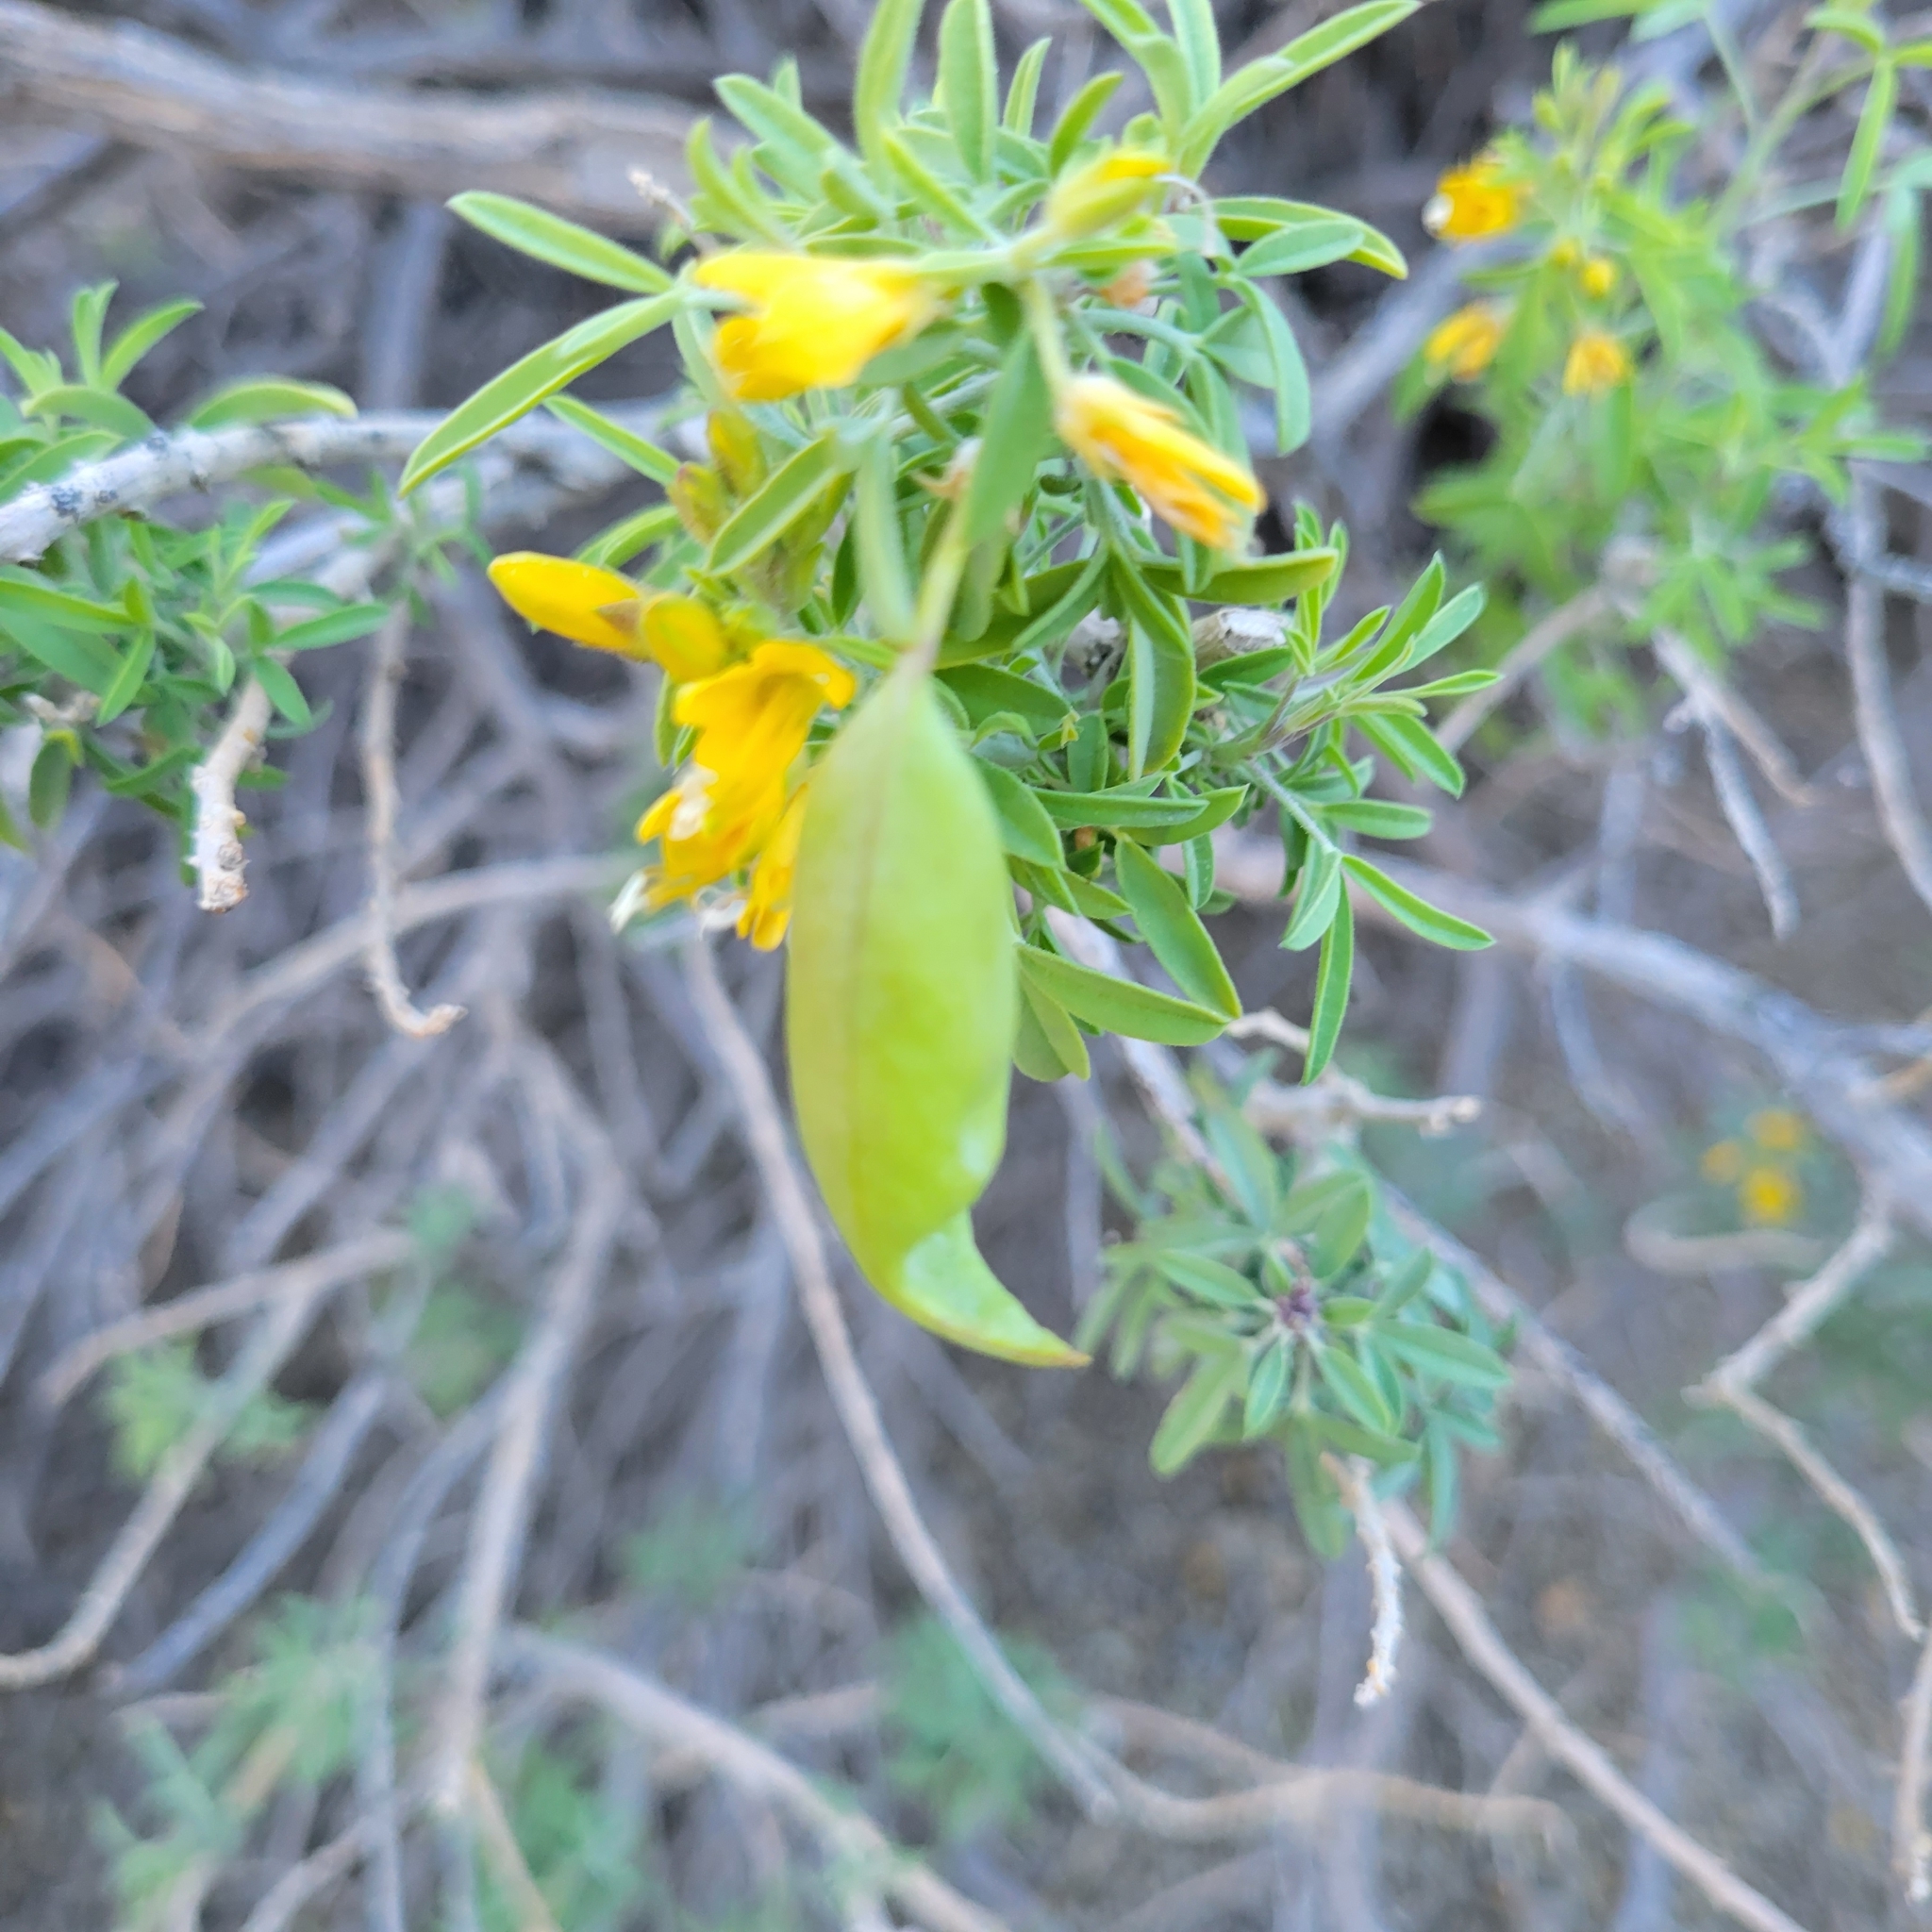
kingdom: Plantae
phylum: Tracheophyta
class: Magnoliopsida
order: Brassicales
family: Cleomaceae
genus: Cleomella
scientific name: Cleomella arborea
